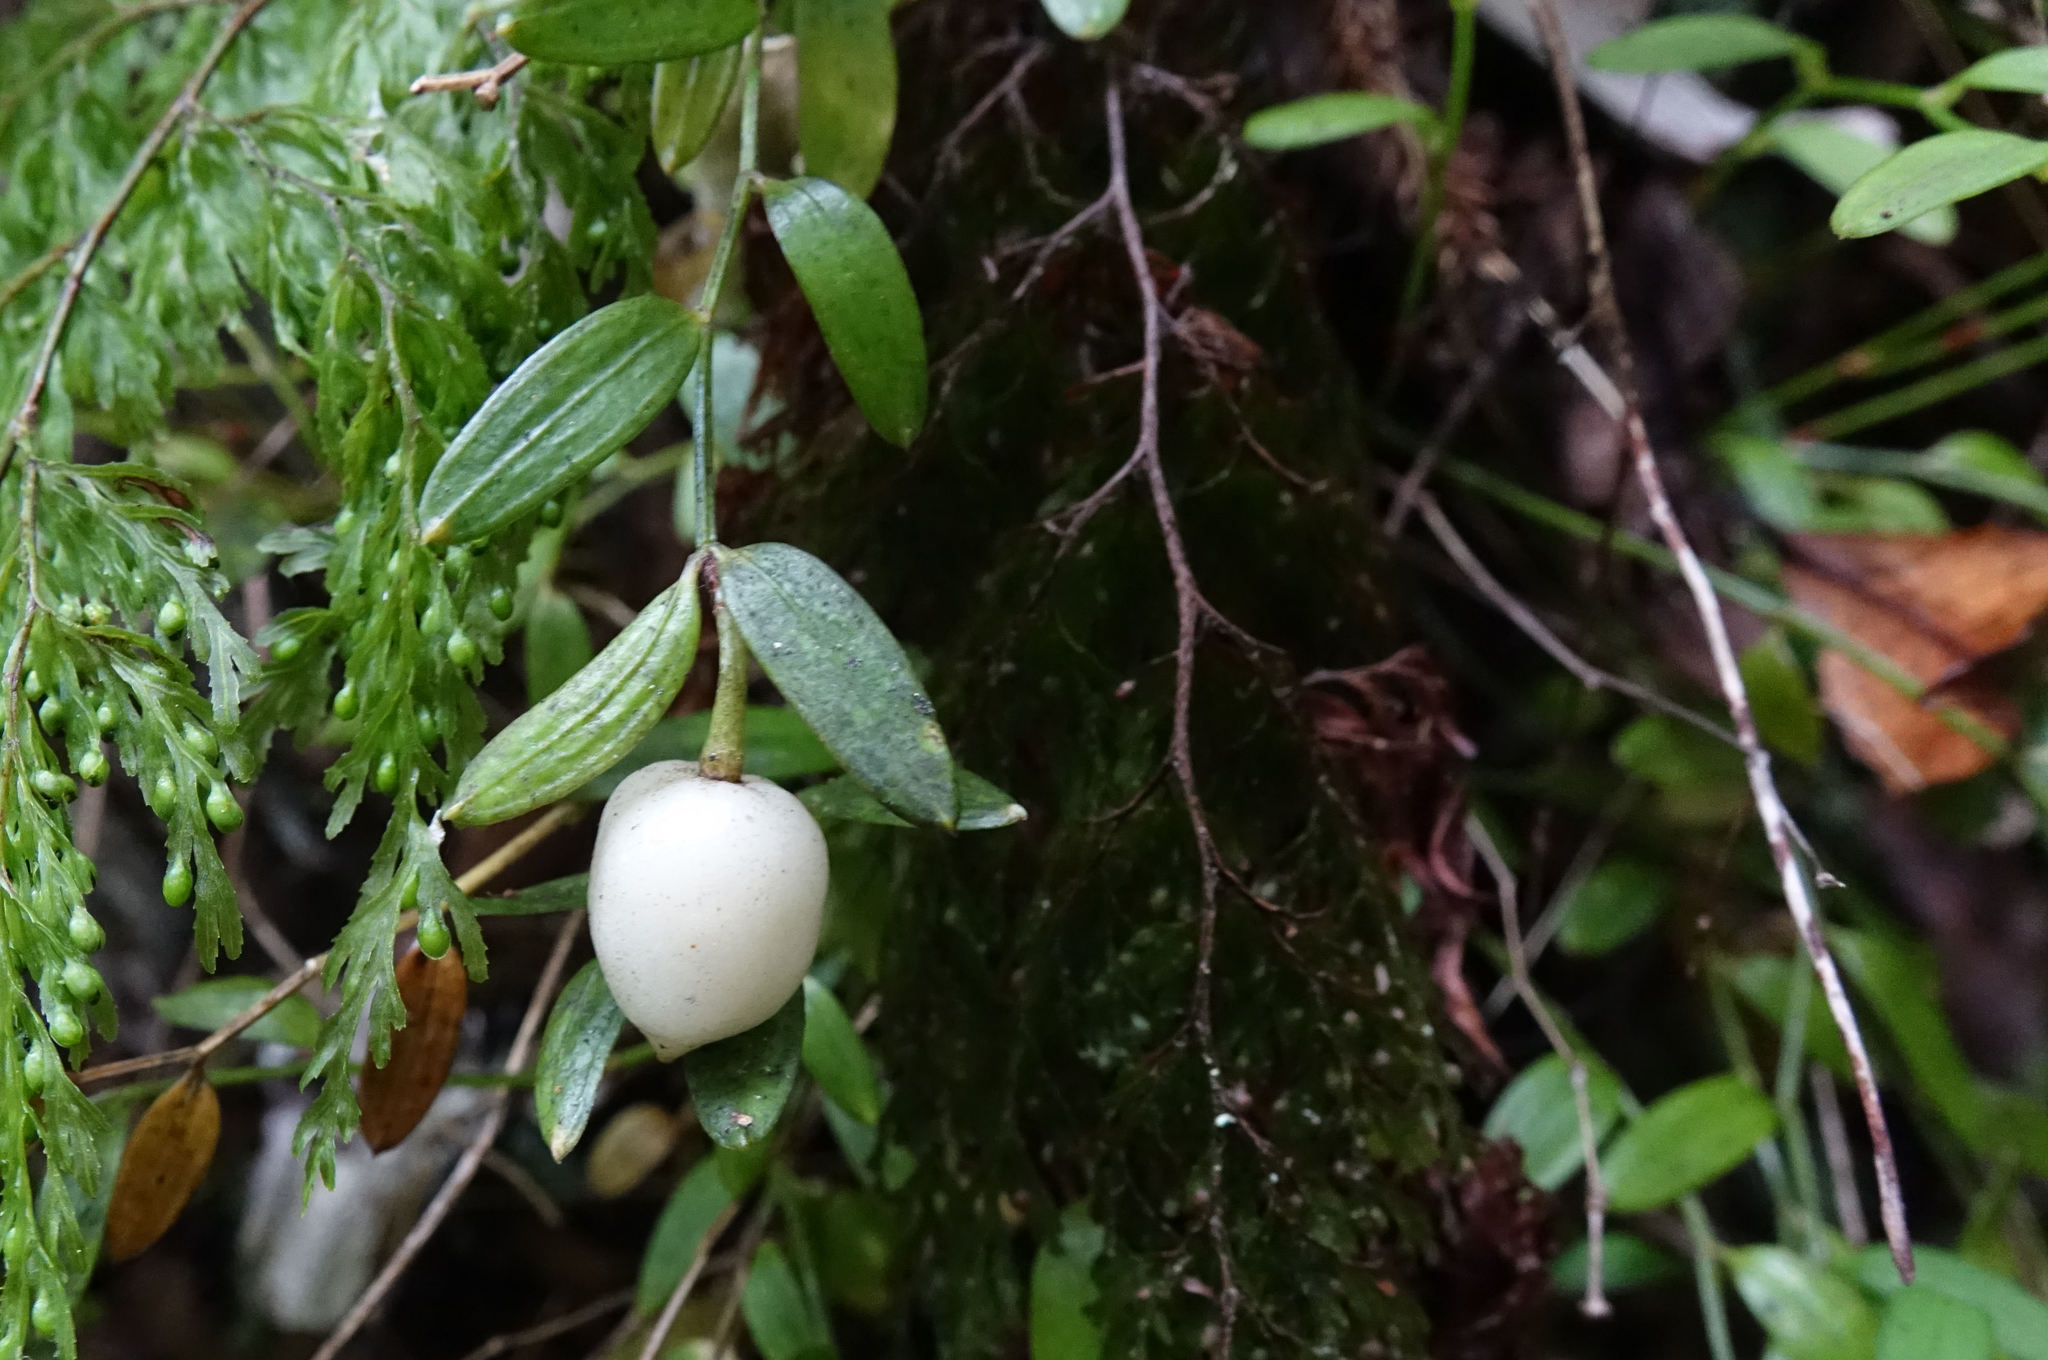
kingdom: Plantae
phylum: Tracheophyta
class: Liliopsida
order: Liliales
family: Alstroemeriaceae
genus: Luzuriaga
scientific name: Luzuriaga parviflora
